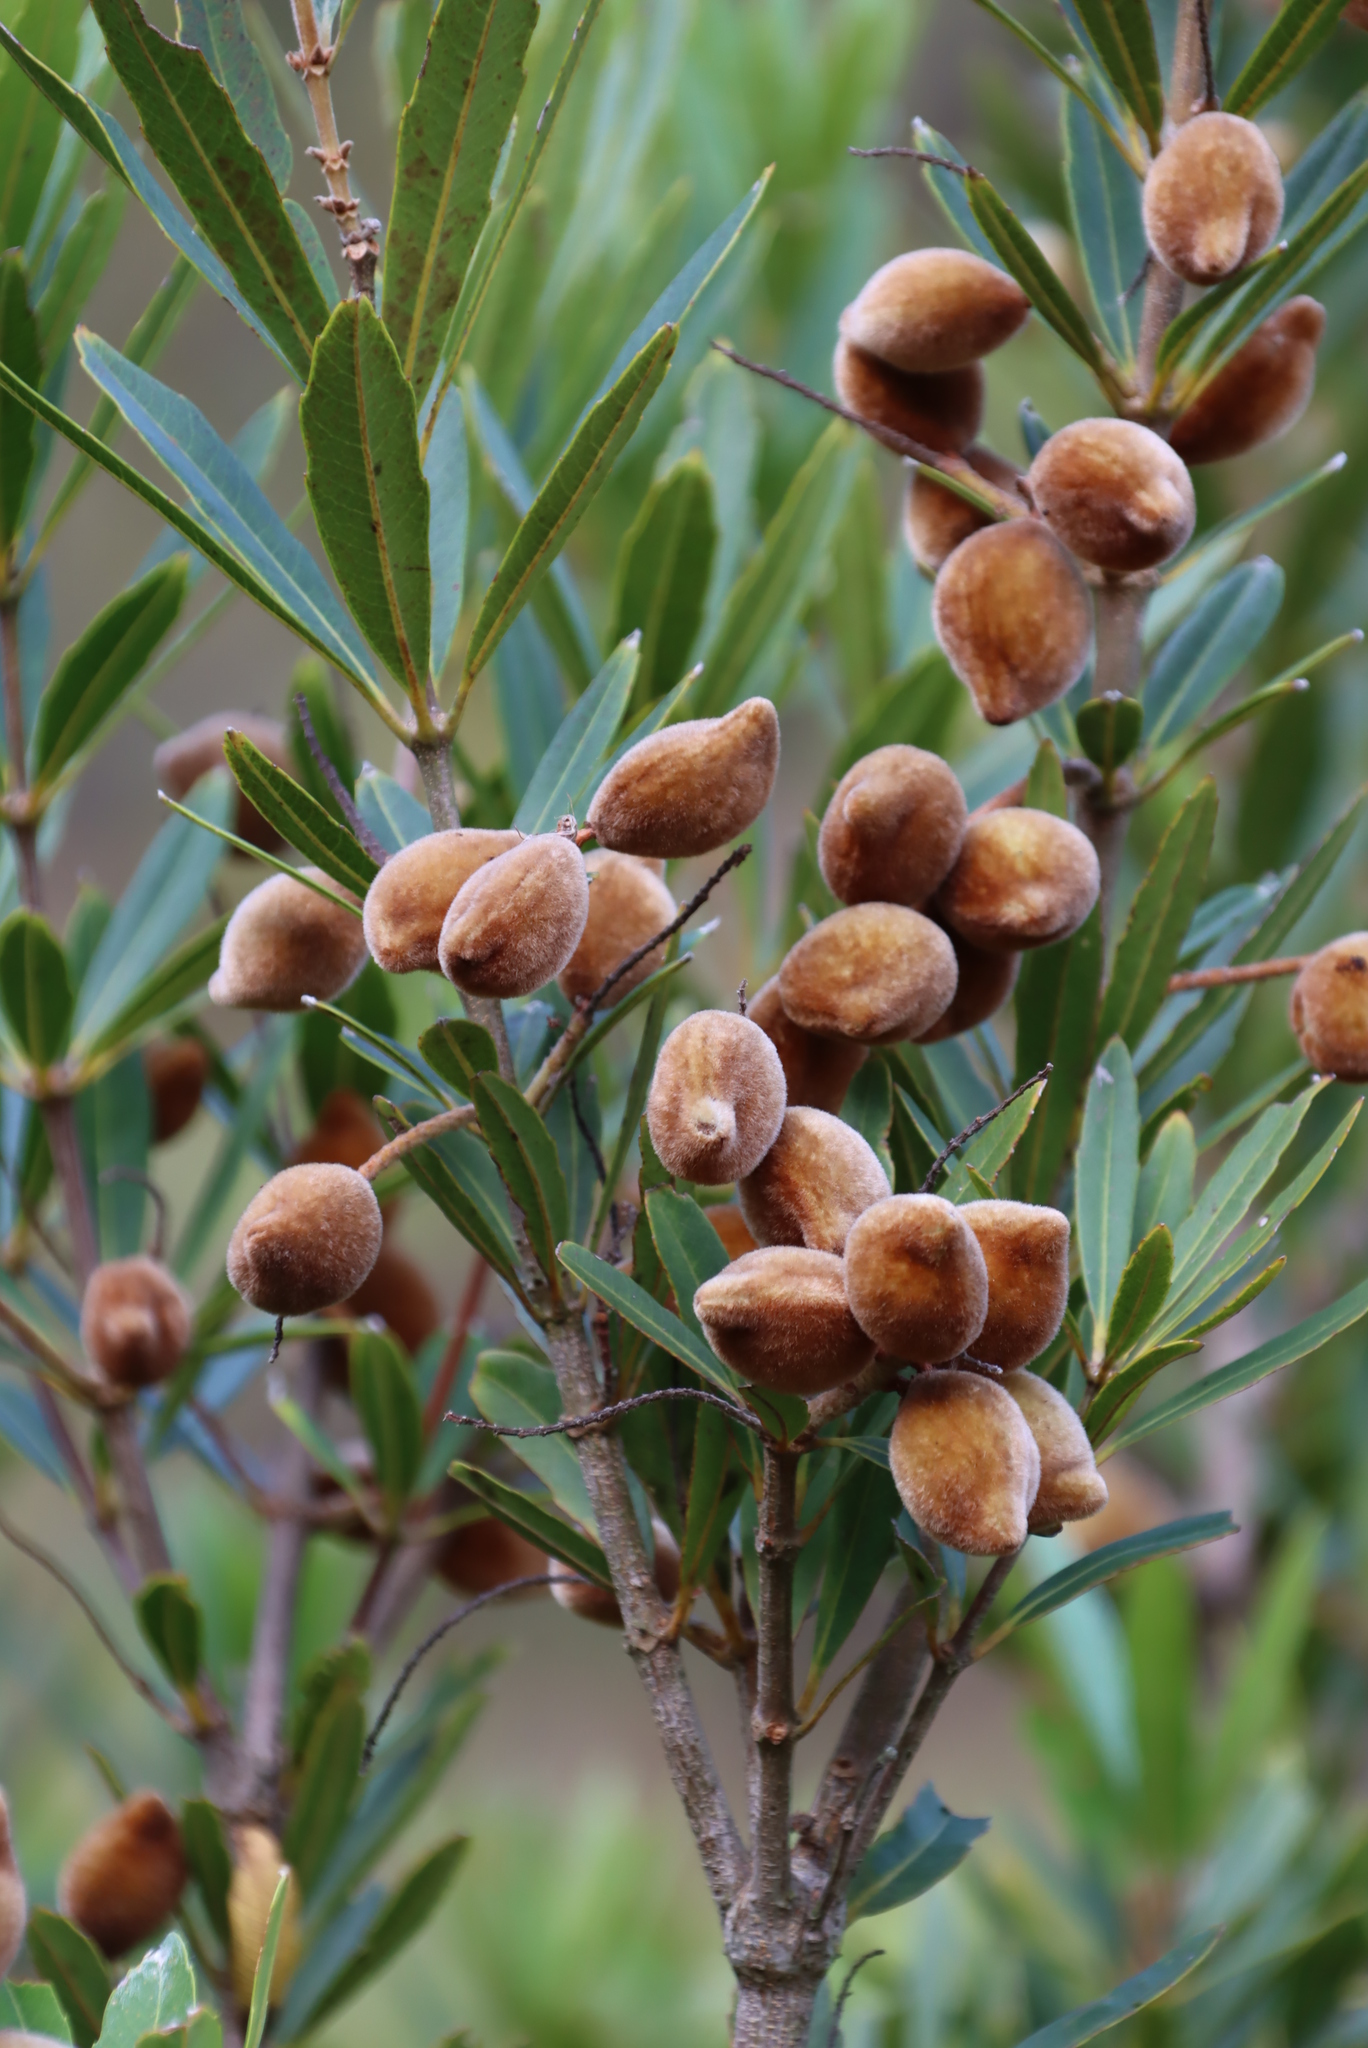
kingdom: Plantae
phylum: Tracheophyta
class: Magnoliopsida
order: Proteales
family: Proteaceae
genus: Brabejum
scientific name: Brabejum stellatifolium
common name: Wild almond
